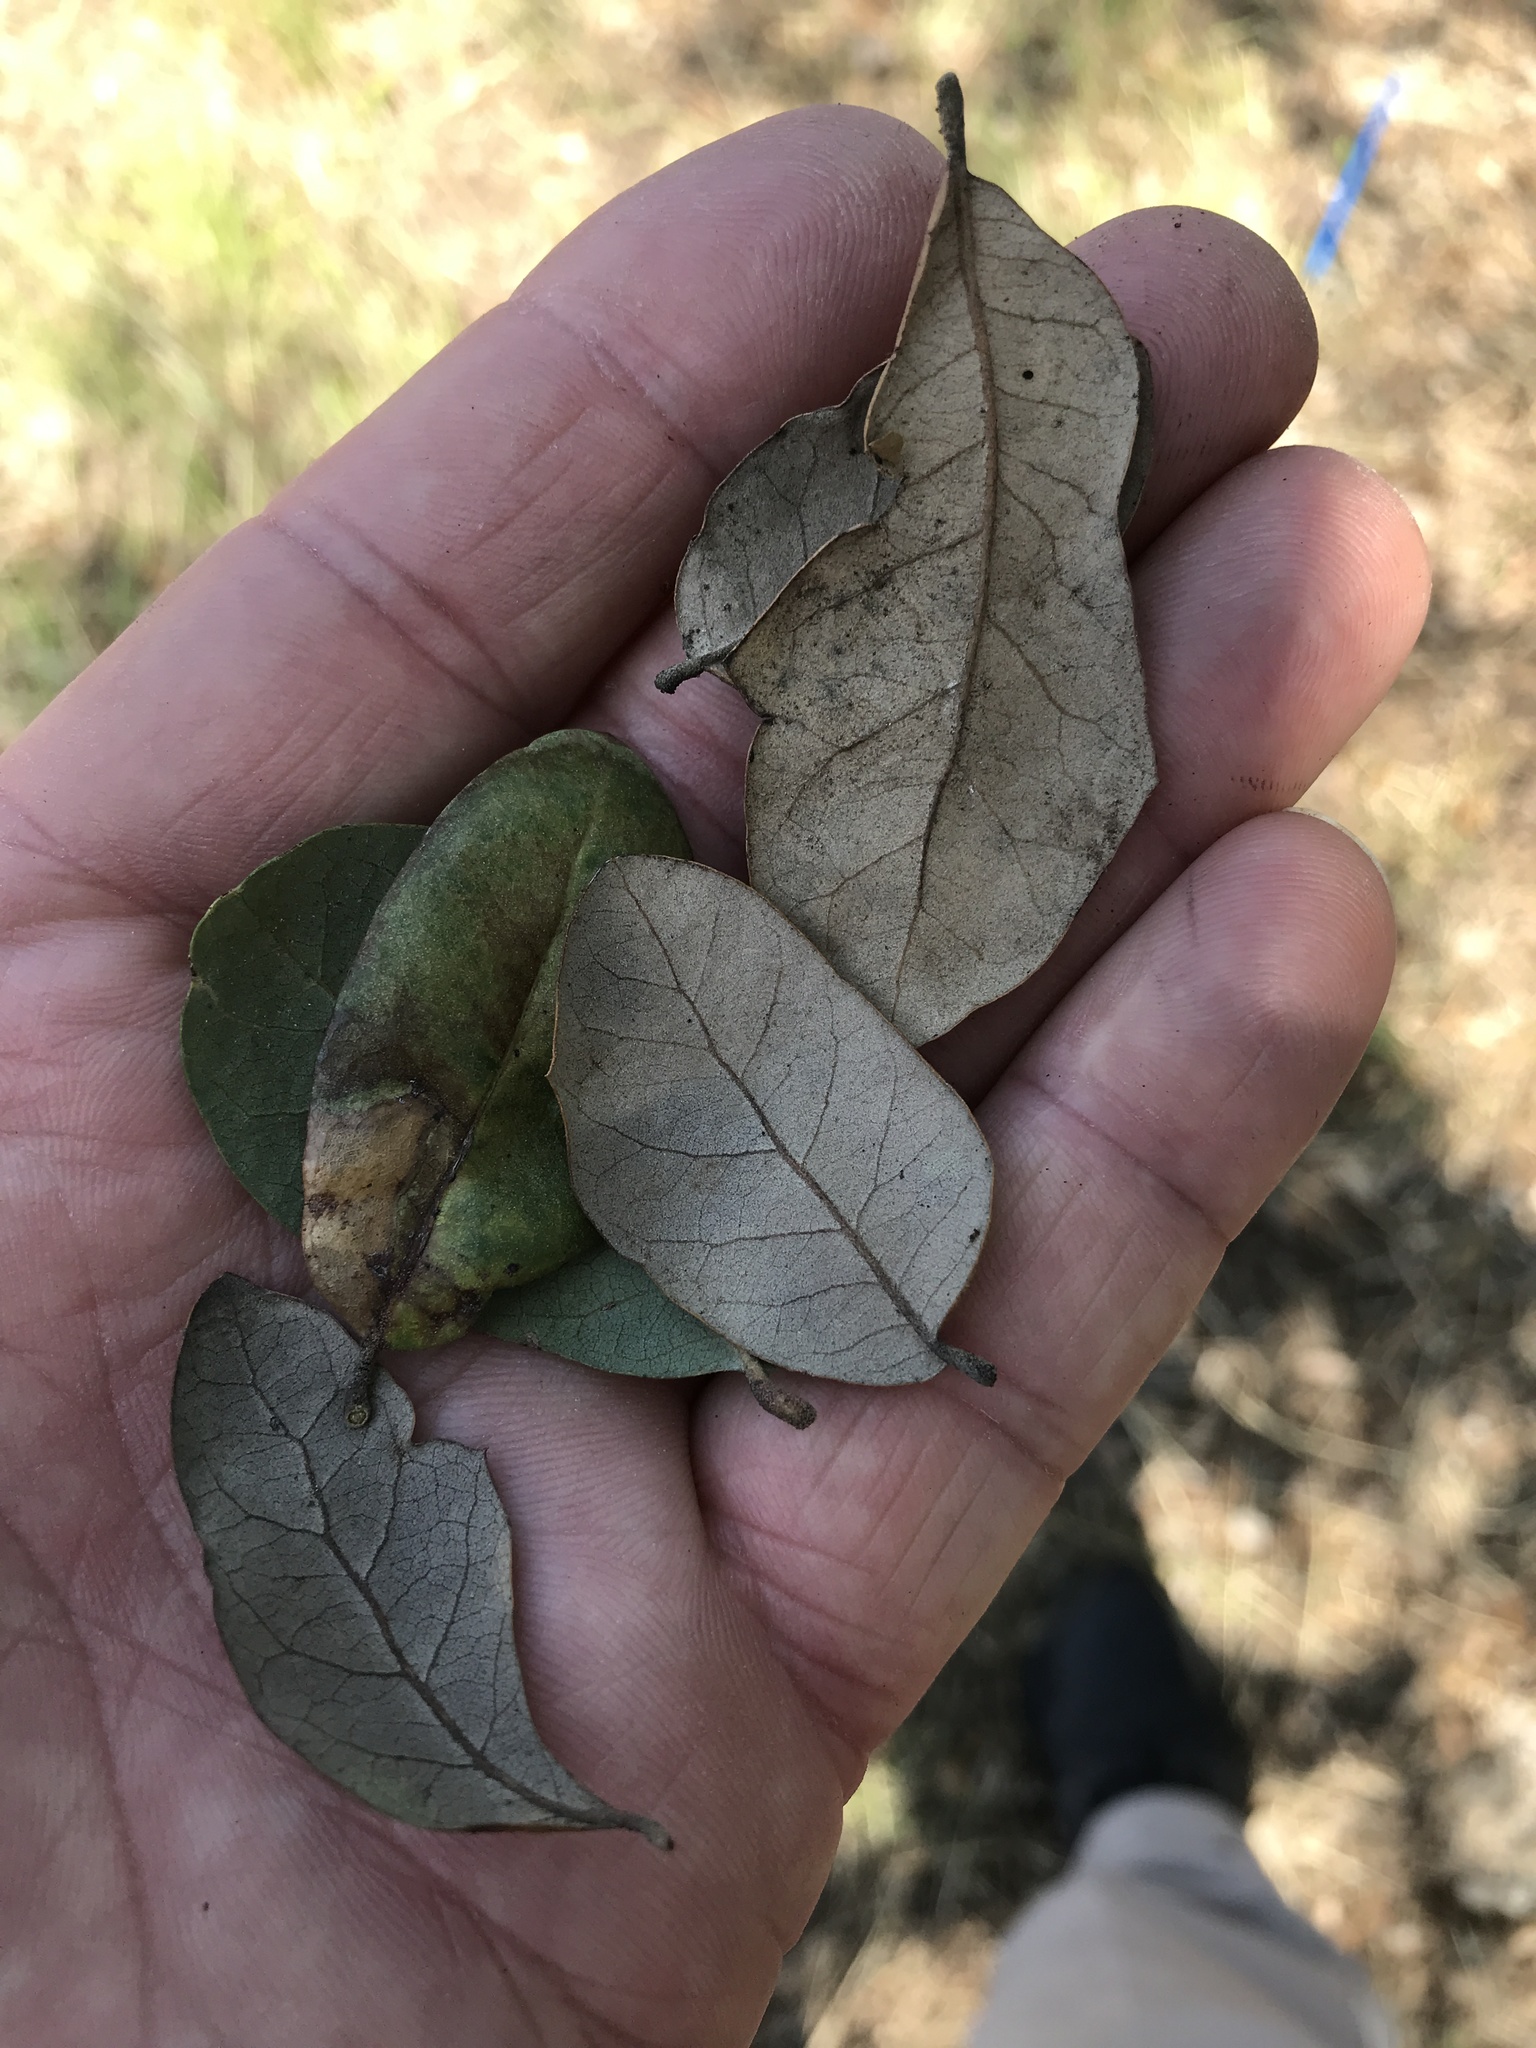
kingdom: Plantae
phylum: Tracheophyta
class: Magnoliopsida
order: Fagales
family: Fagaceae
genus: Quercus
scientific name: Quercus fusiformis
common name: Texas live oak
